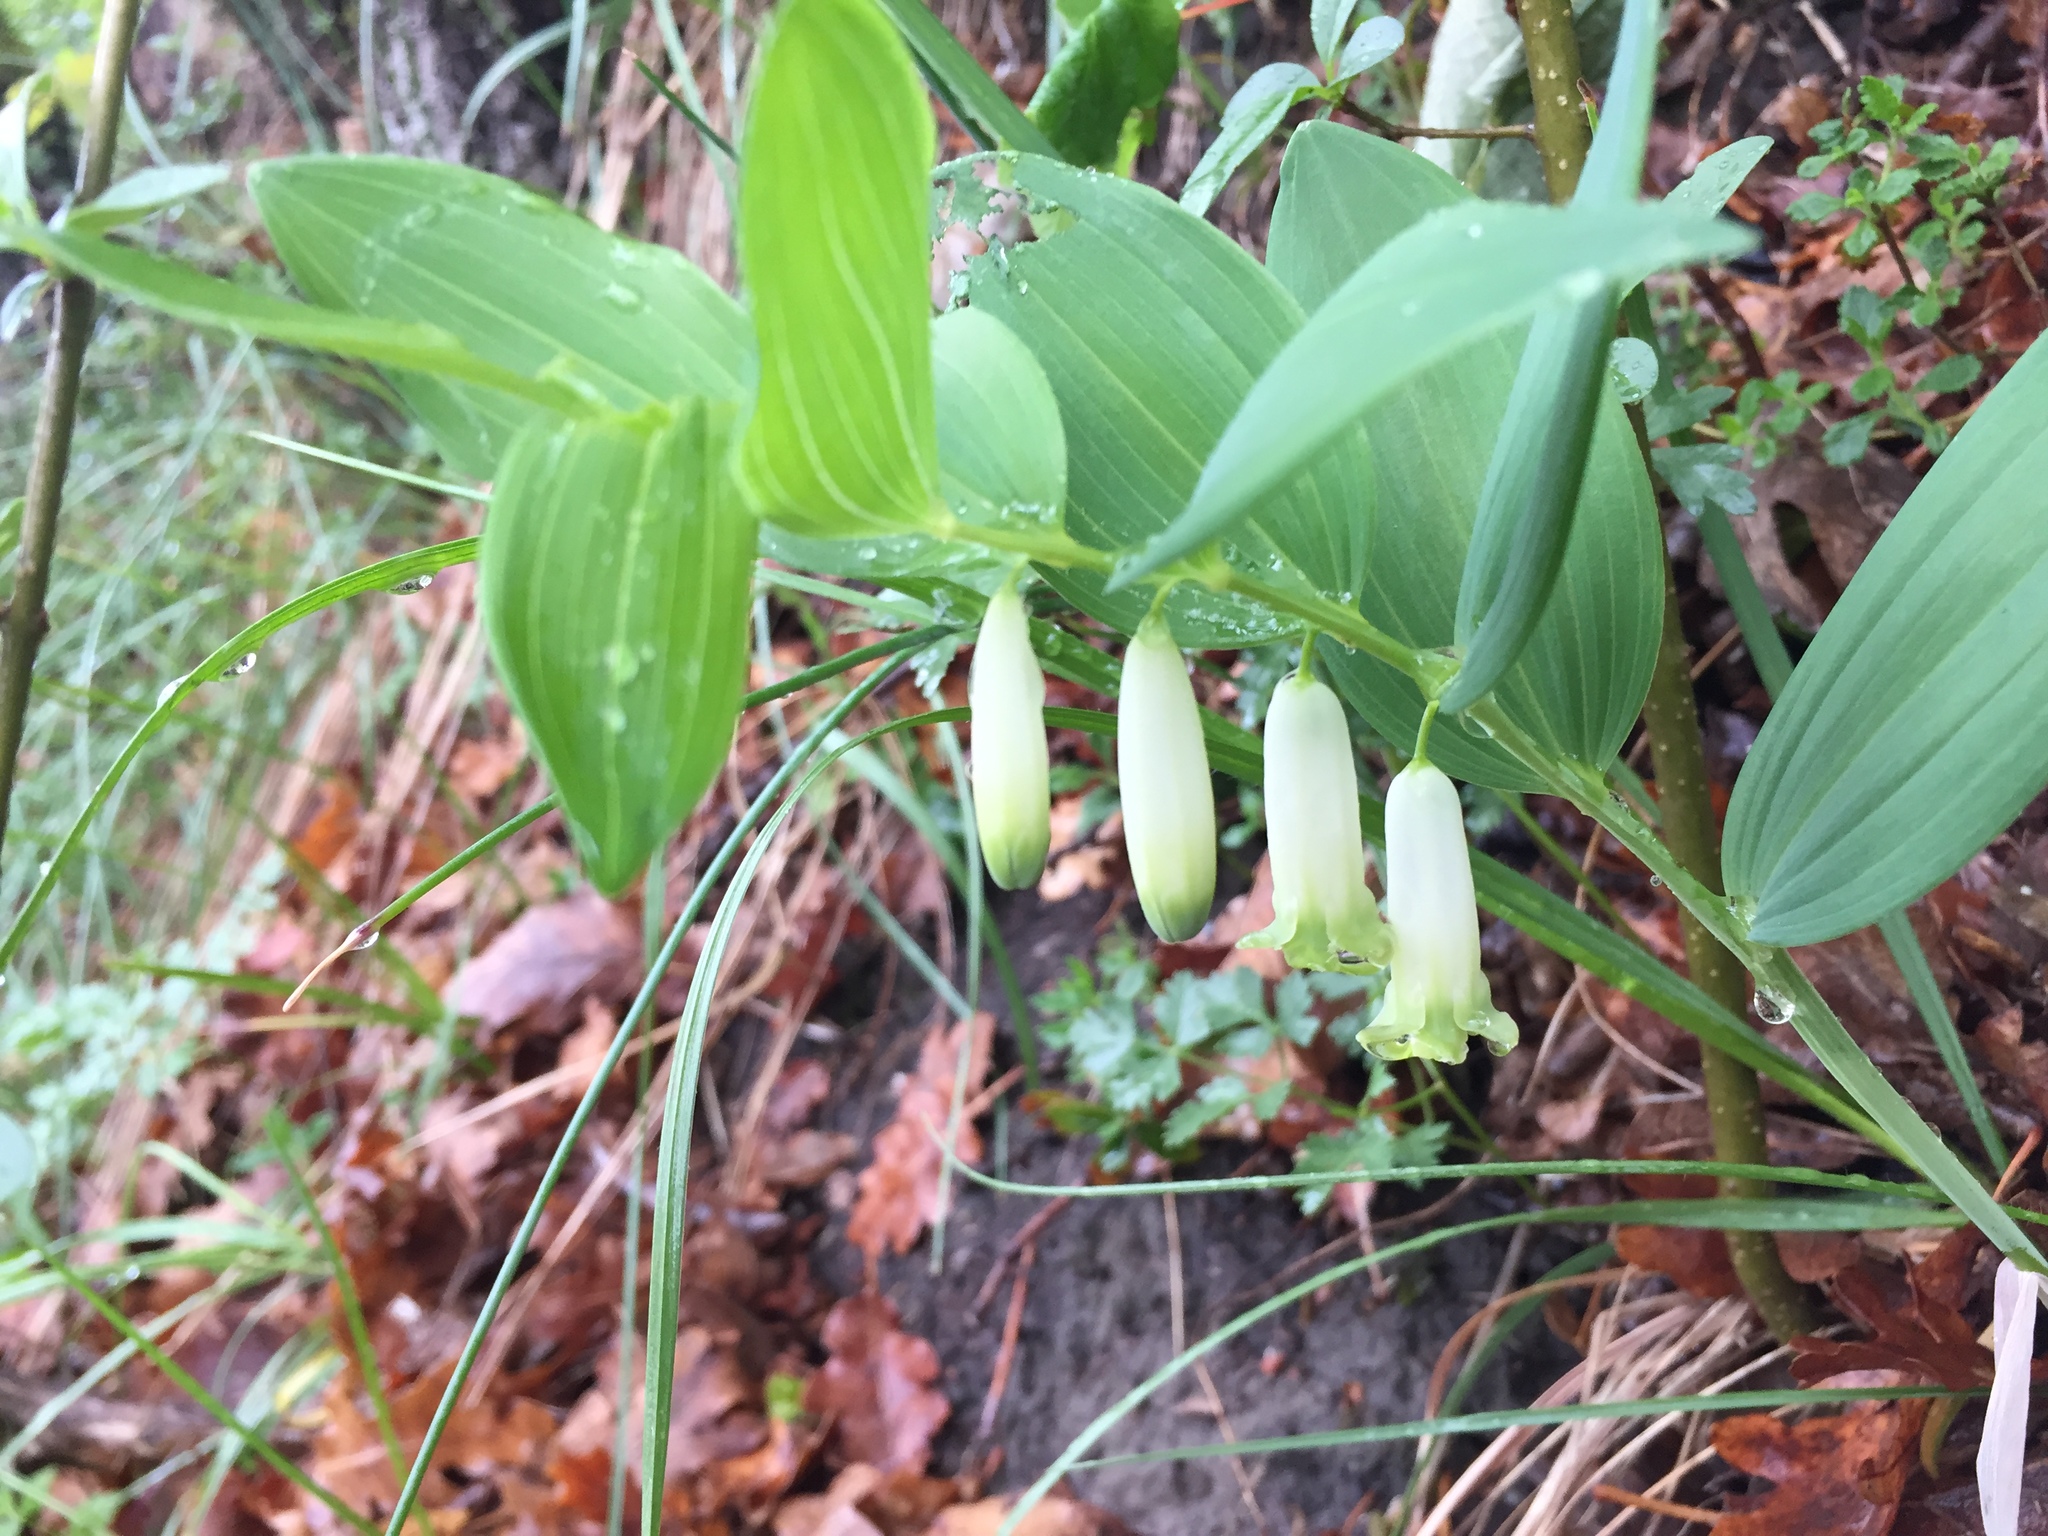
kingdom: Plantae
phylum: Tracheophyta
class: Liliopsida
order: Asparagales
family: Asparagaceae
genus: Polygonatum
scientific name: Polygonatum odoratum
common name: Angular solomon's-seal
